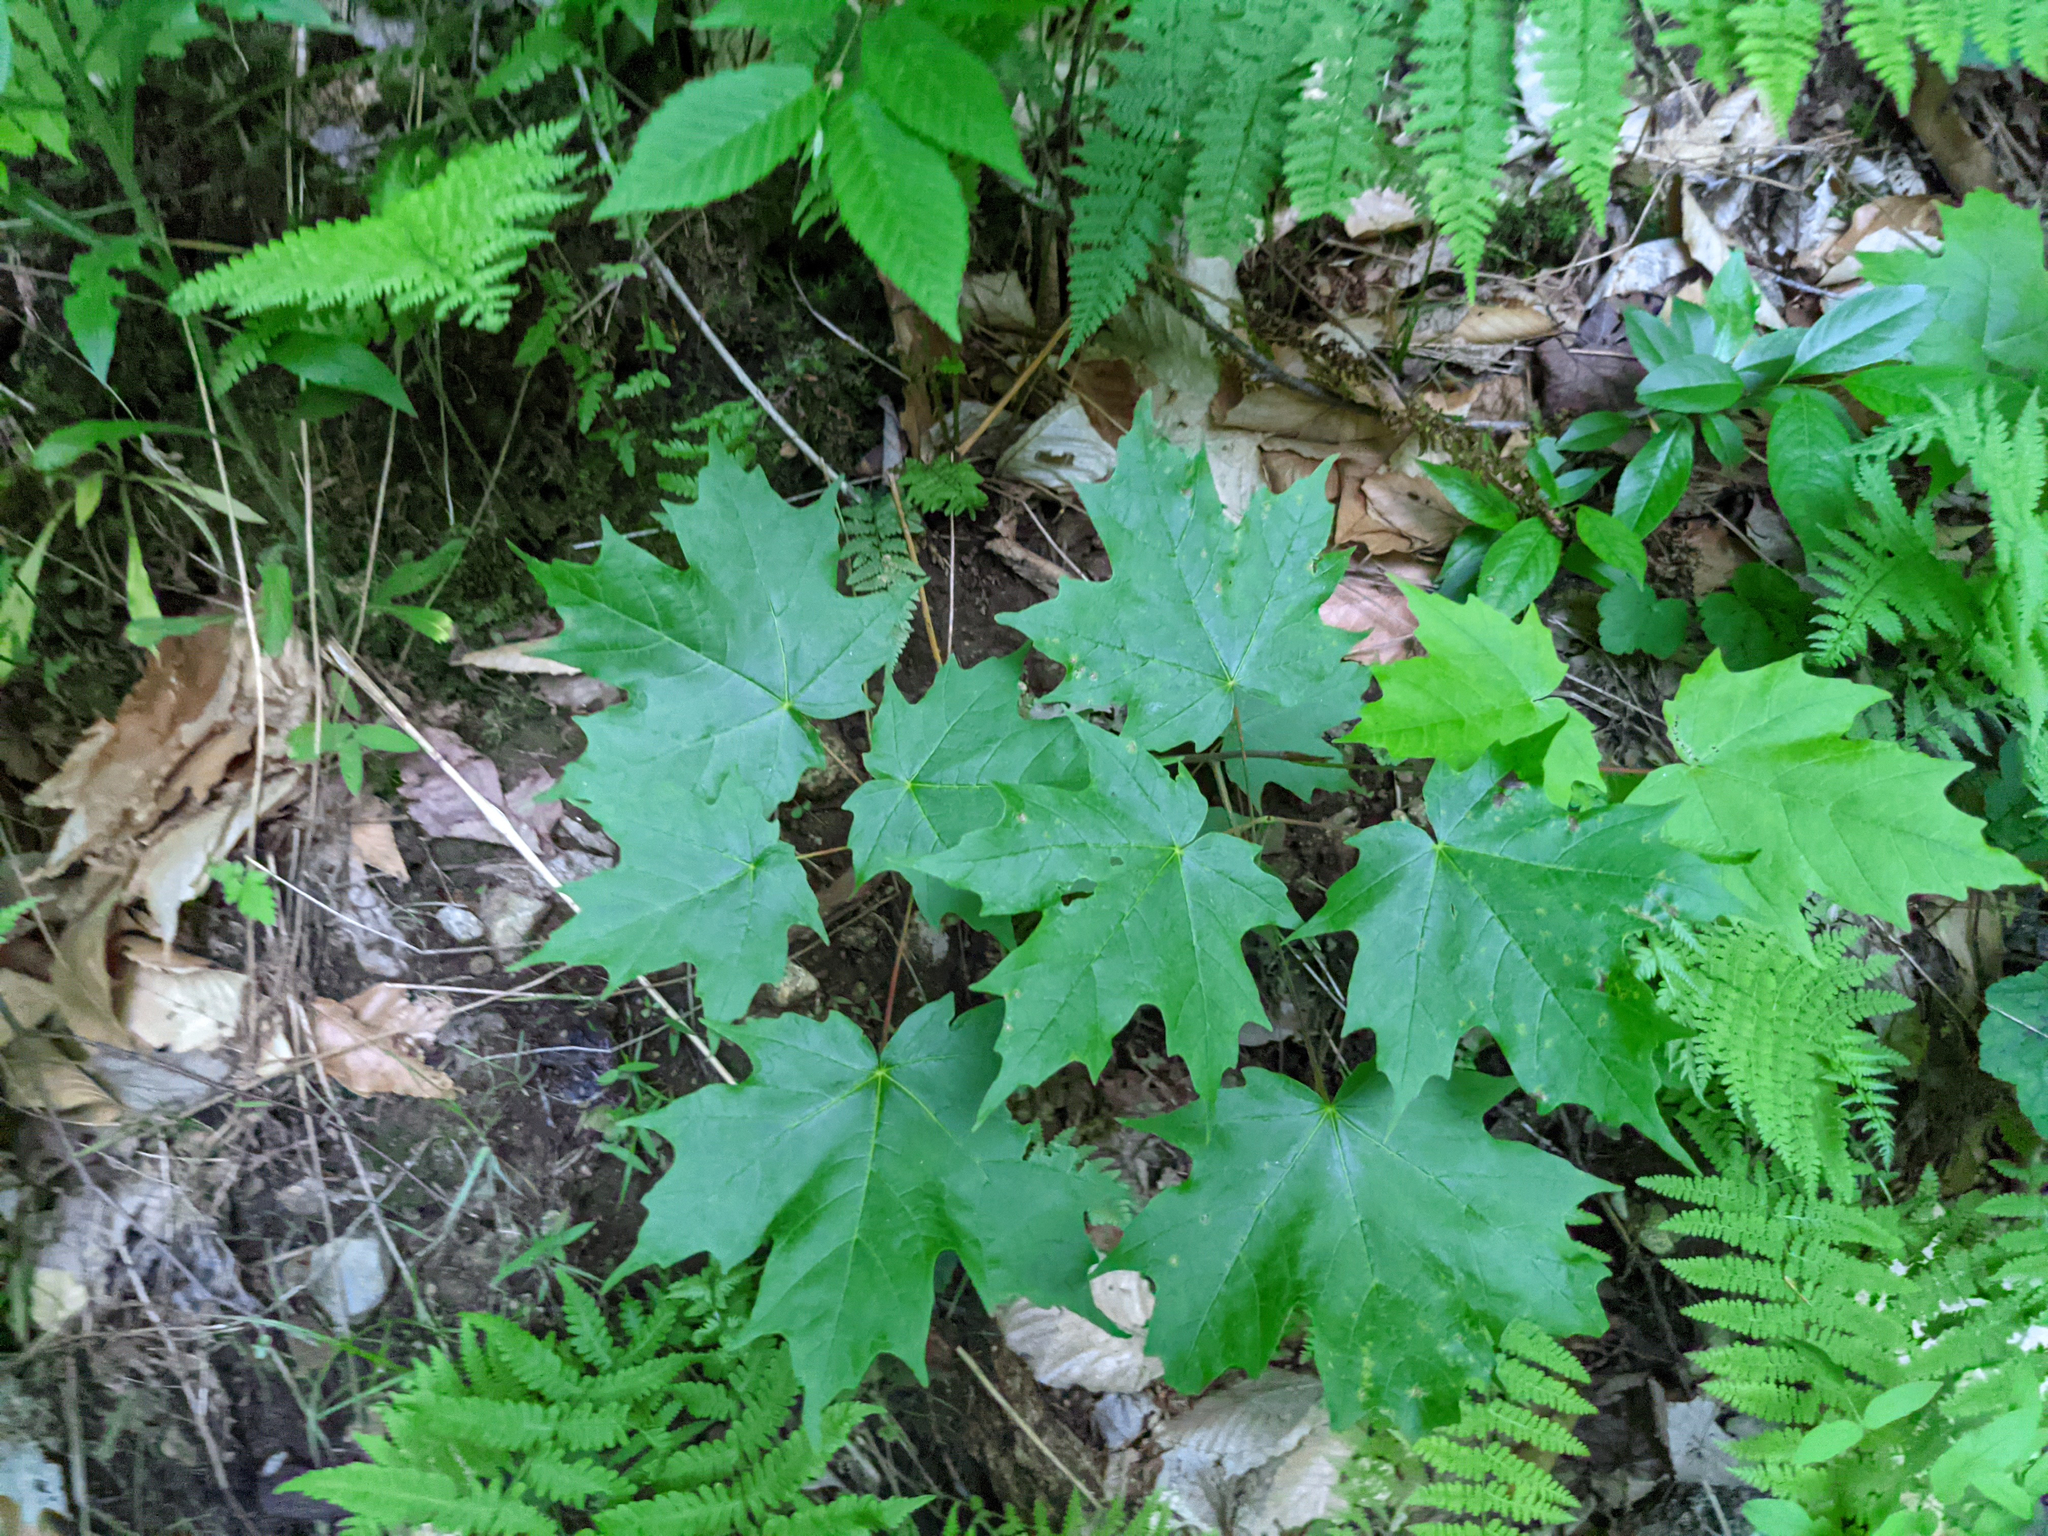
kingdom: Plantae
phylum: Tracheophyta
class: Magnoliopsida
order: Sapindales
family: Sapindaceae
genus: Acer
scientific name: Acer saccharum
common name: Sugar maple
